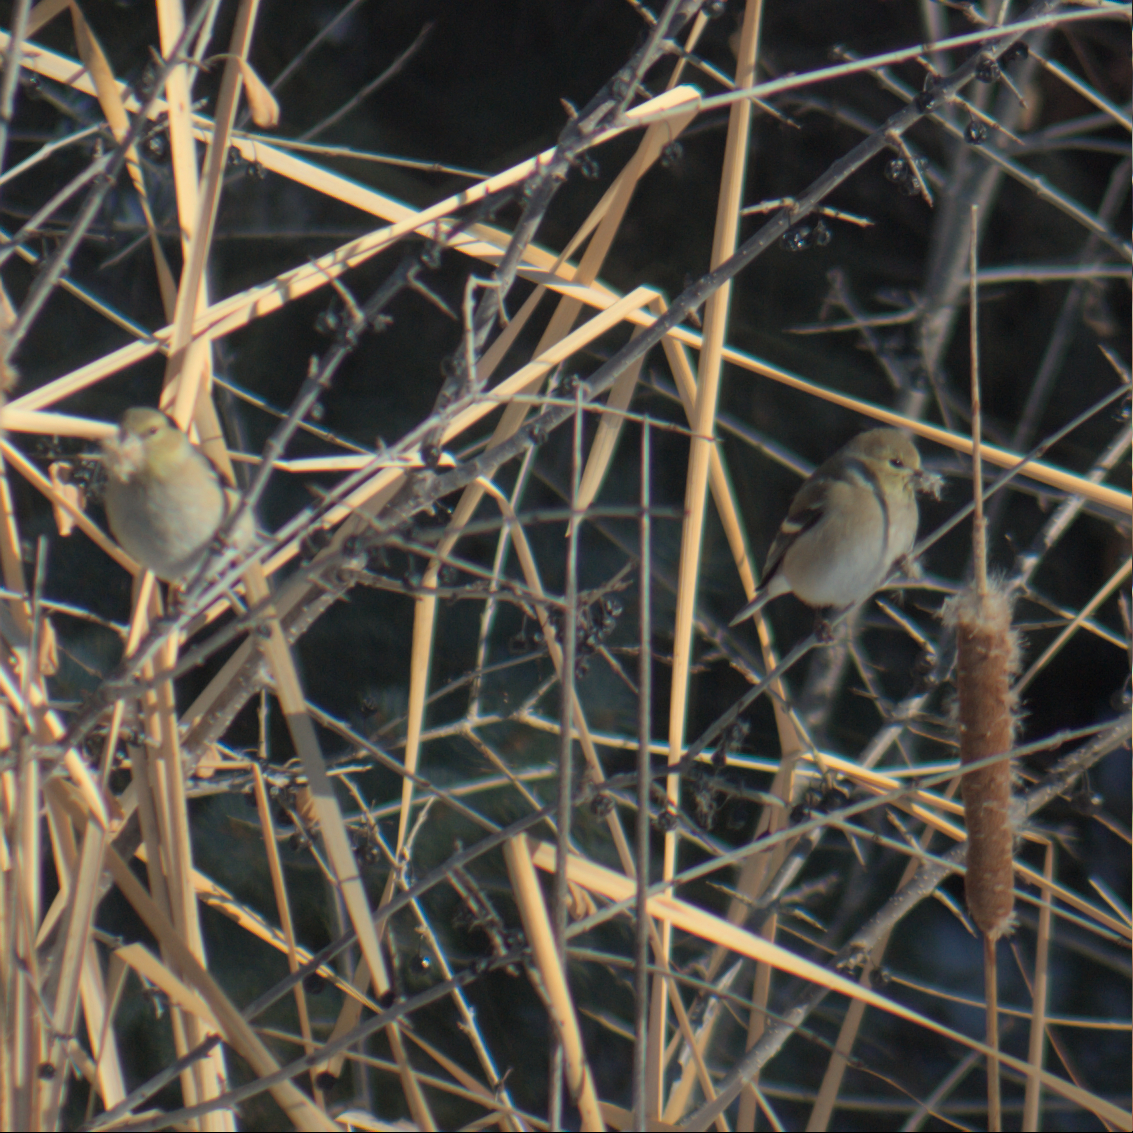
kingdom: Animalia
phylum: Chordata
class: Aves
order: Passeriformes
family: Fringillidae
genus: Spinus
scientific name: Spinus tristis
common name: American goldfinch
